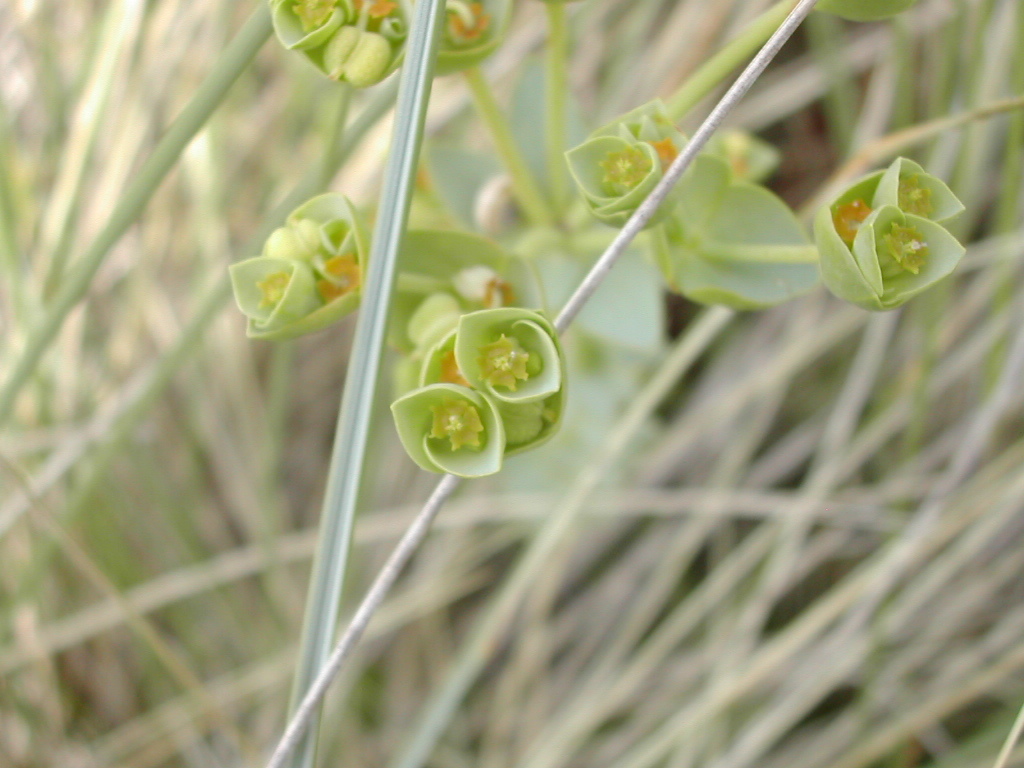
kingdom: Plantae
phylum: Tracheophyta
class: Magnoliopsida
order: Malpighiales
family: Euphorbiaceae
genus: Euphorbia
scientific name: Euphorbia paralias
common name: Sea spurge
